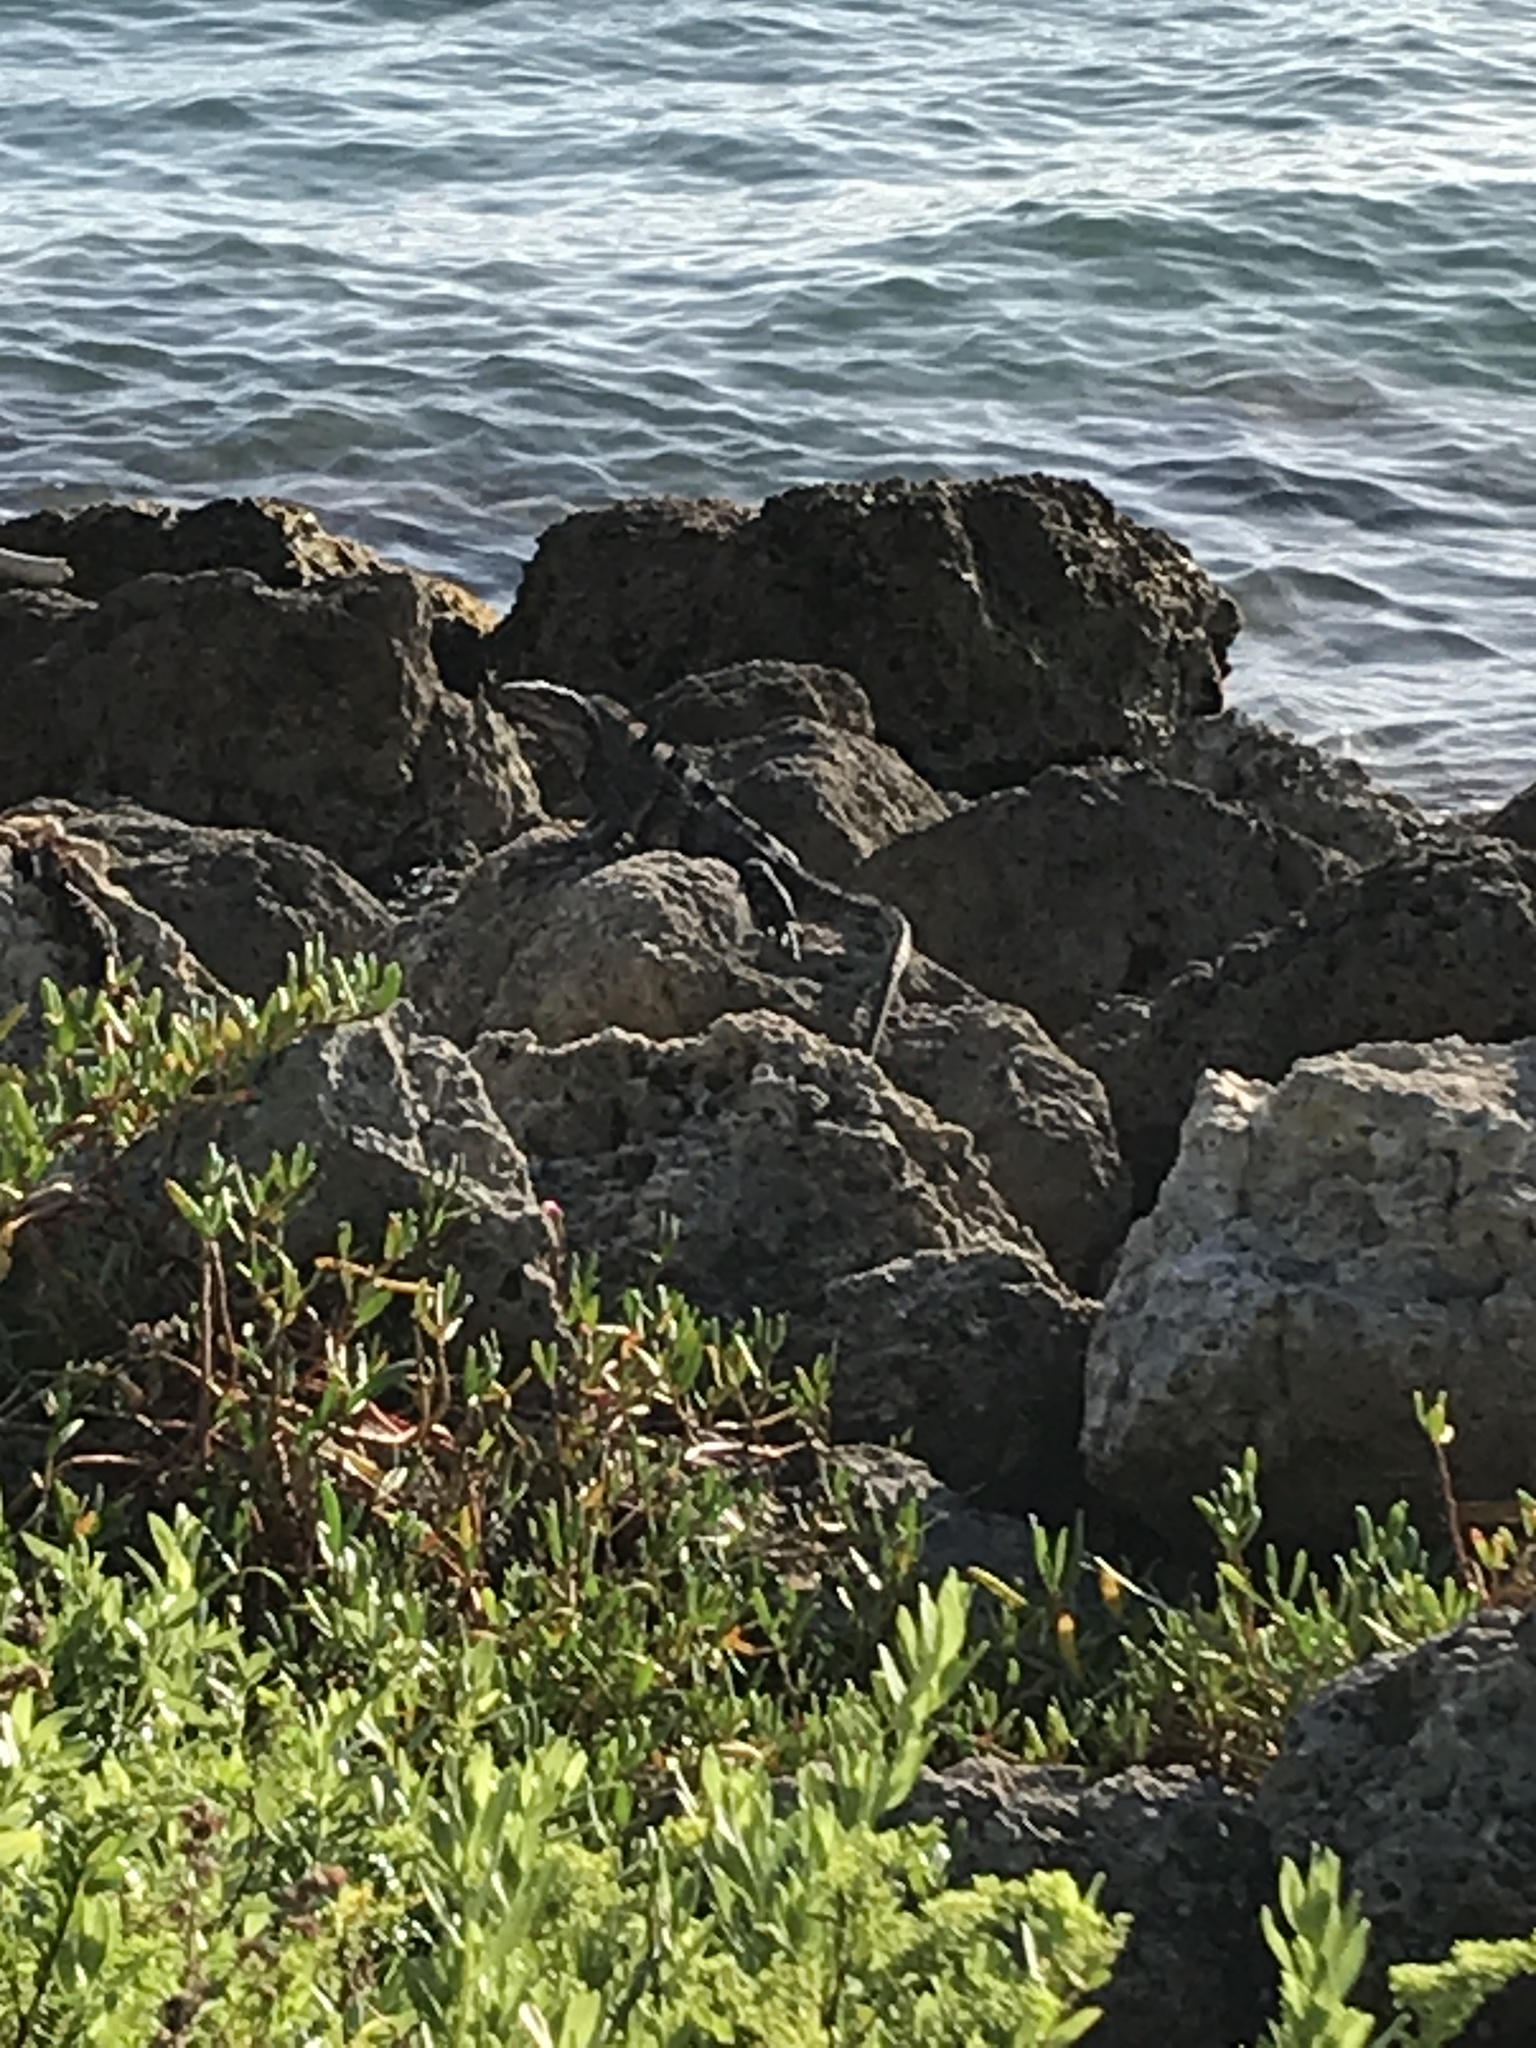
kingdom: Animalia
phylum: Chordata
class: Squamata
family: Iguanidae
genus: Ctenosaura
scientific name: Ctenosaura similis
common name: Black spiny-tailed iguana
